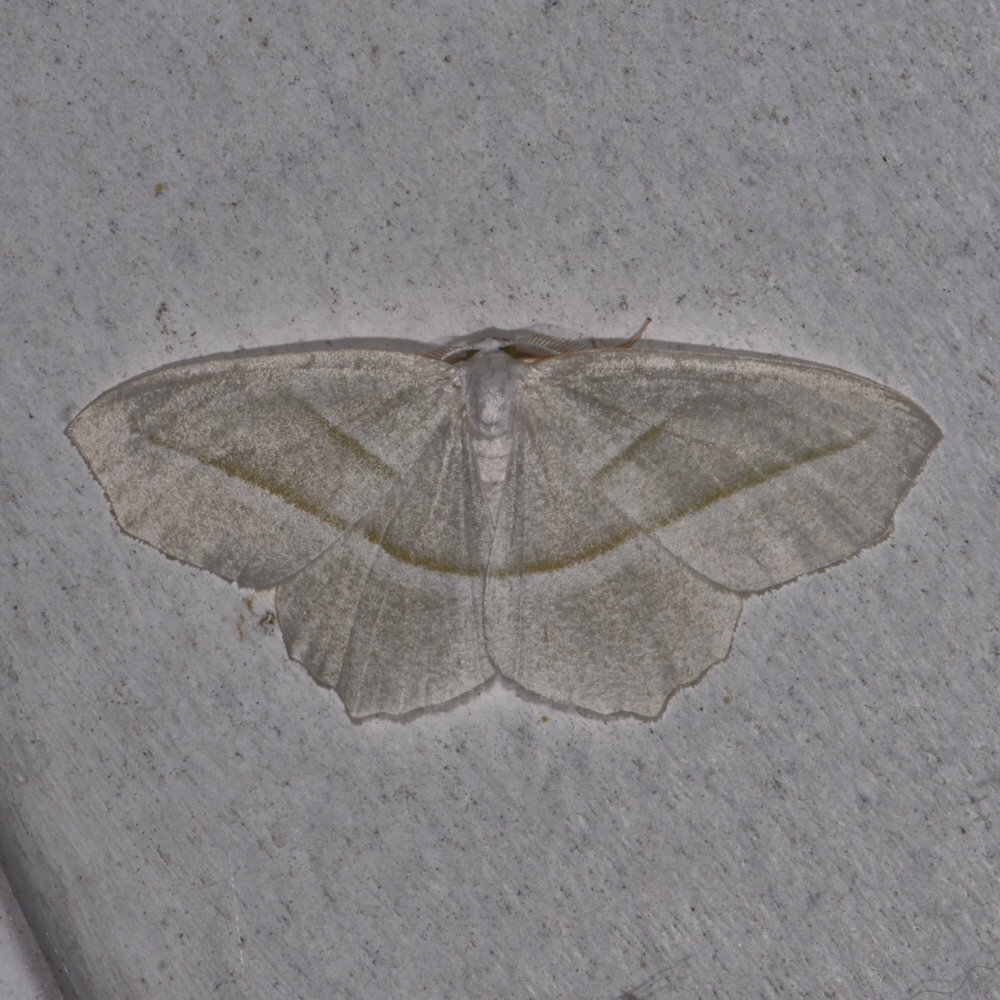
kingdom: Animalia
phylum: Arthropoda
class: Insecta
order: Lepidoptera
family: Geometridae
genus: Campaea
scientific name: Campaea perlata
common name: Fringed looper
